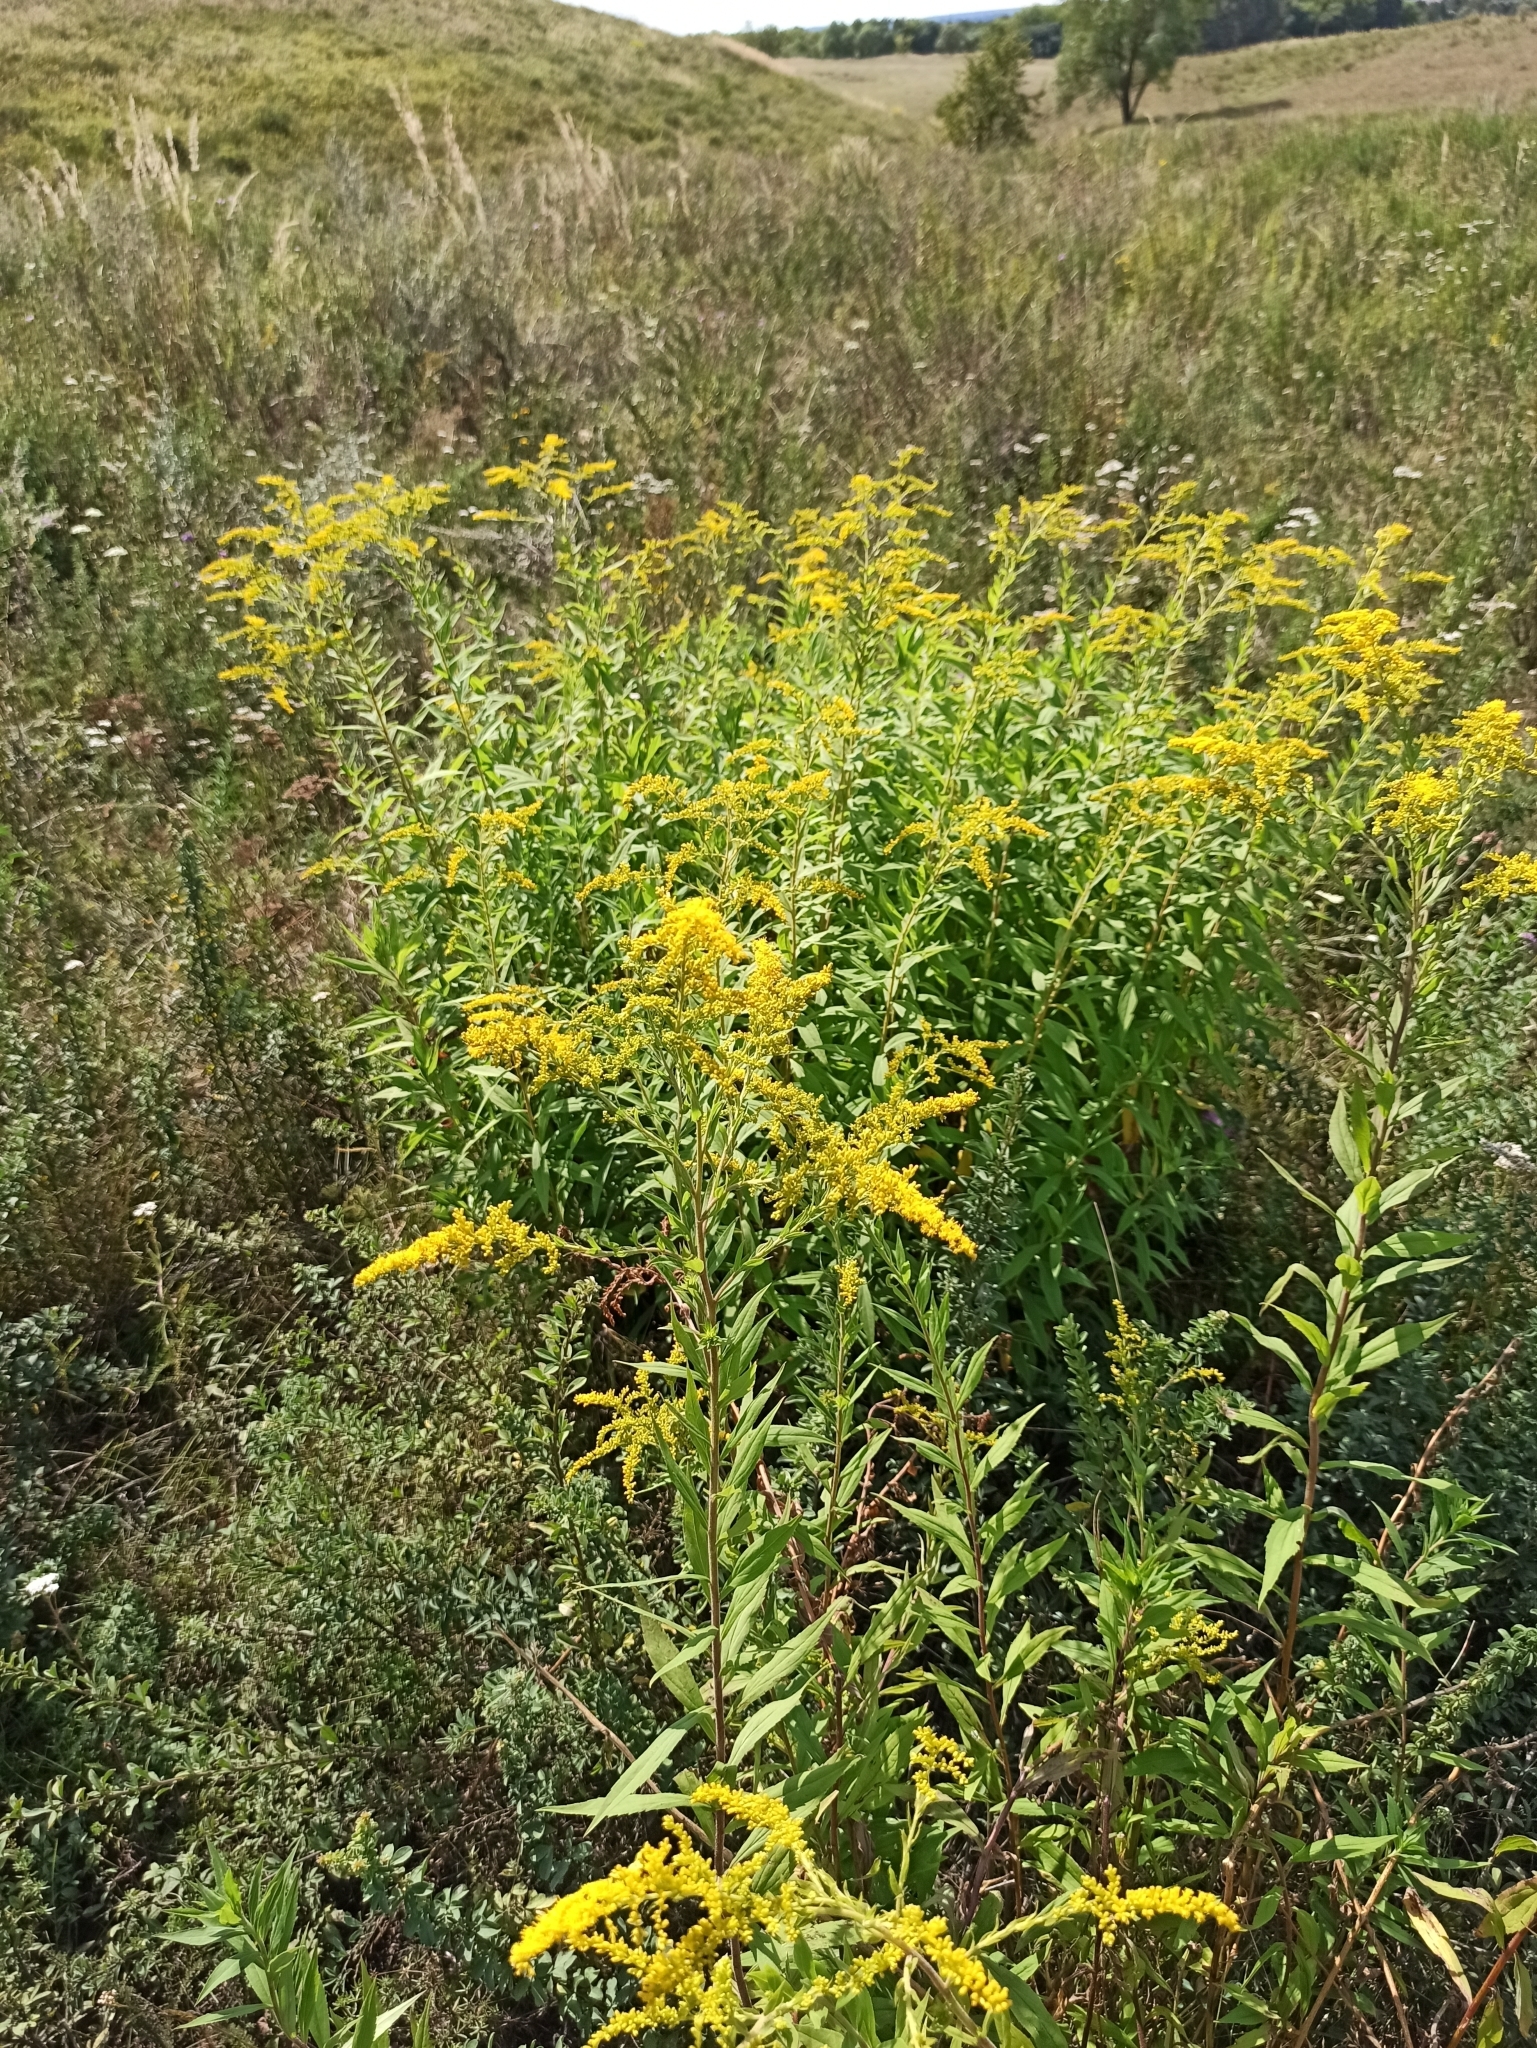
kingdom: Plantae
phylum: Tracheophyta
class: Magnoliopsida
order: Asterales
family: Asteraceae
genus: Solidago
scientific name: Solidago canadensis
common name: Canada goldenrod
